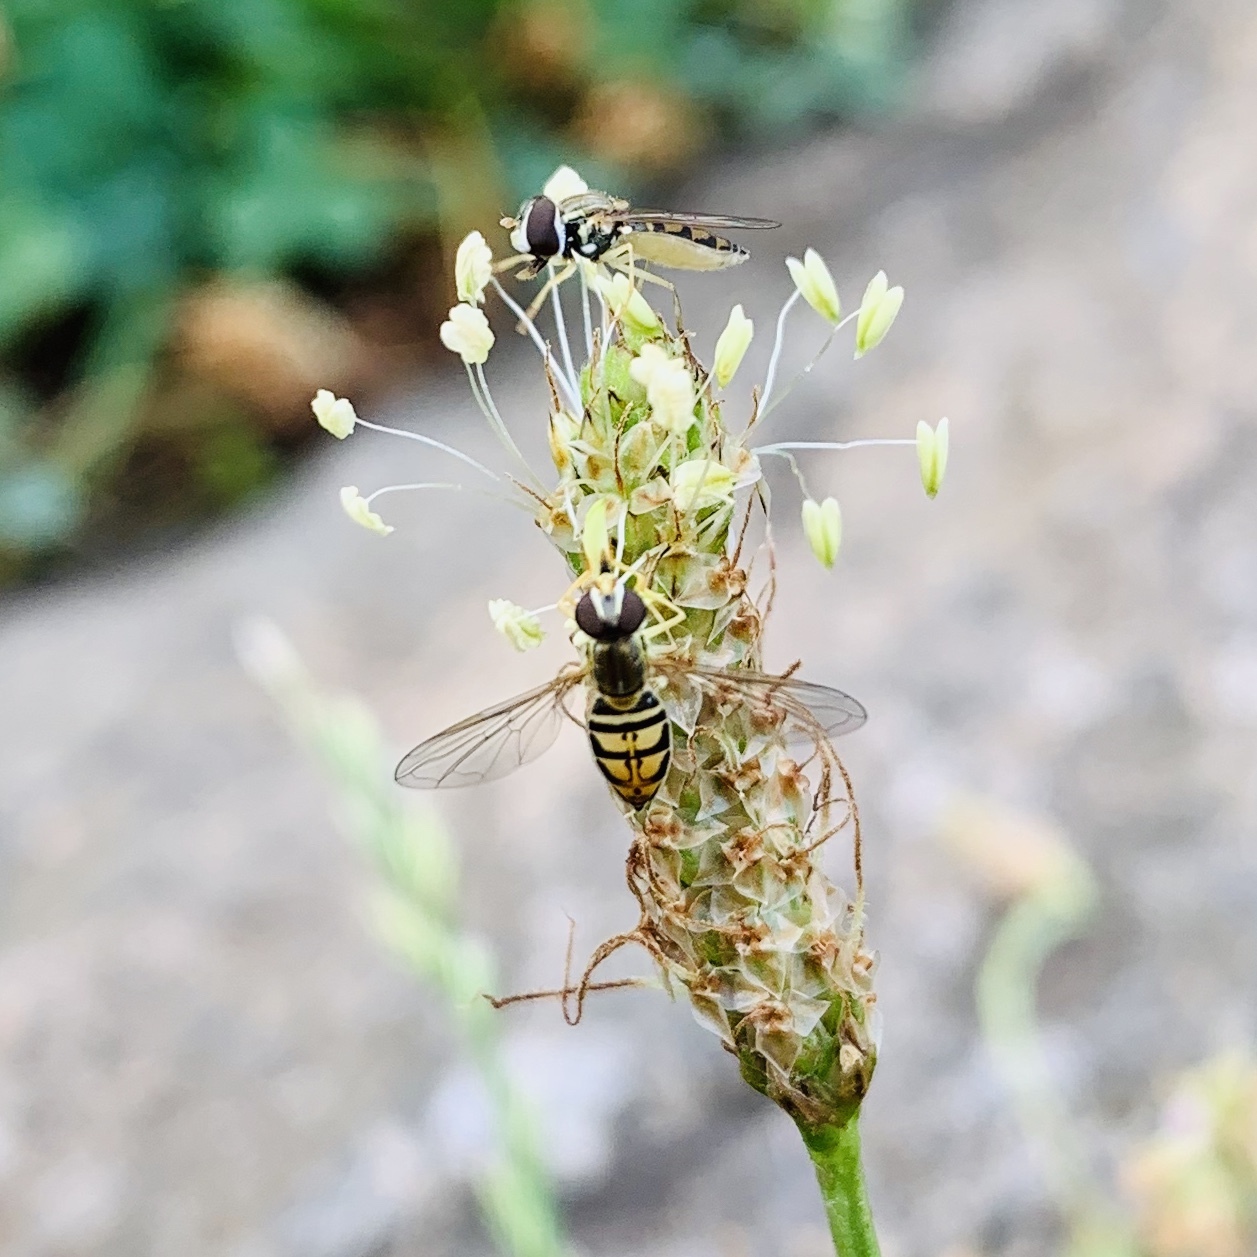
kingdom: Animalia
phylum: Arthropoda
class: Insecta
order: Diptera
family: Syrphidae
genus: Toxomerus
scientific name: Toxomerus marginatus
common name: Syrphid fly
